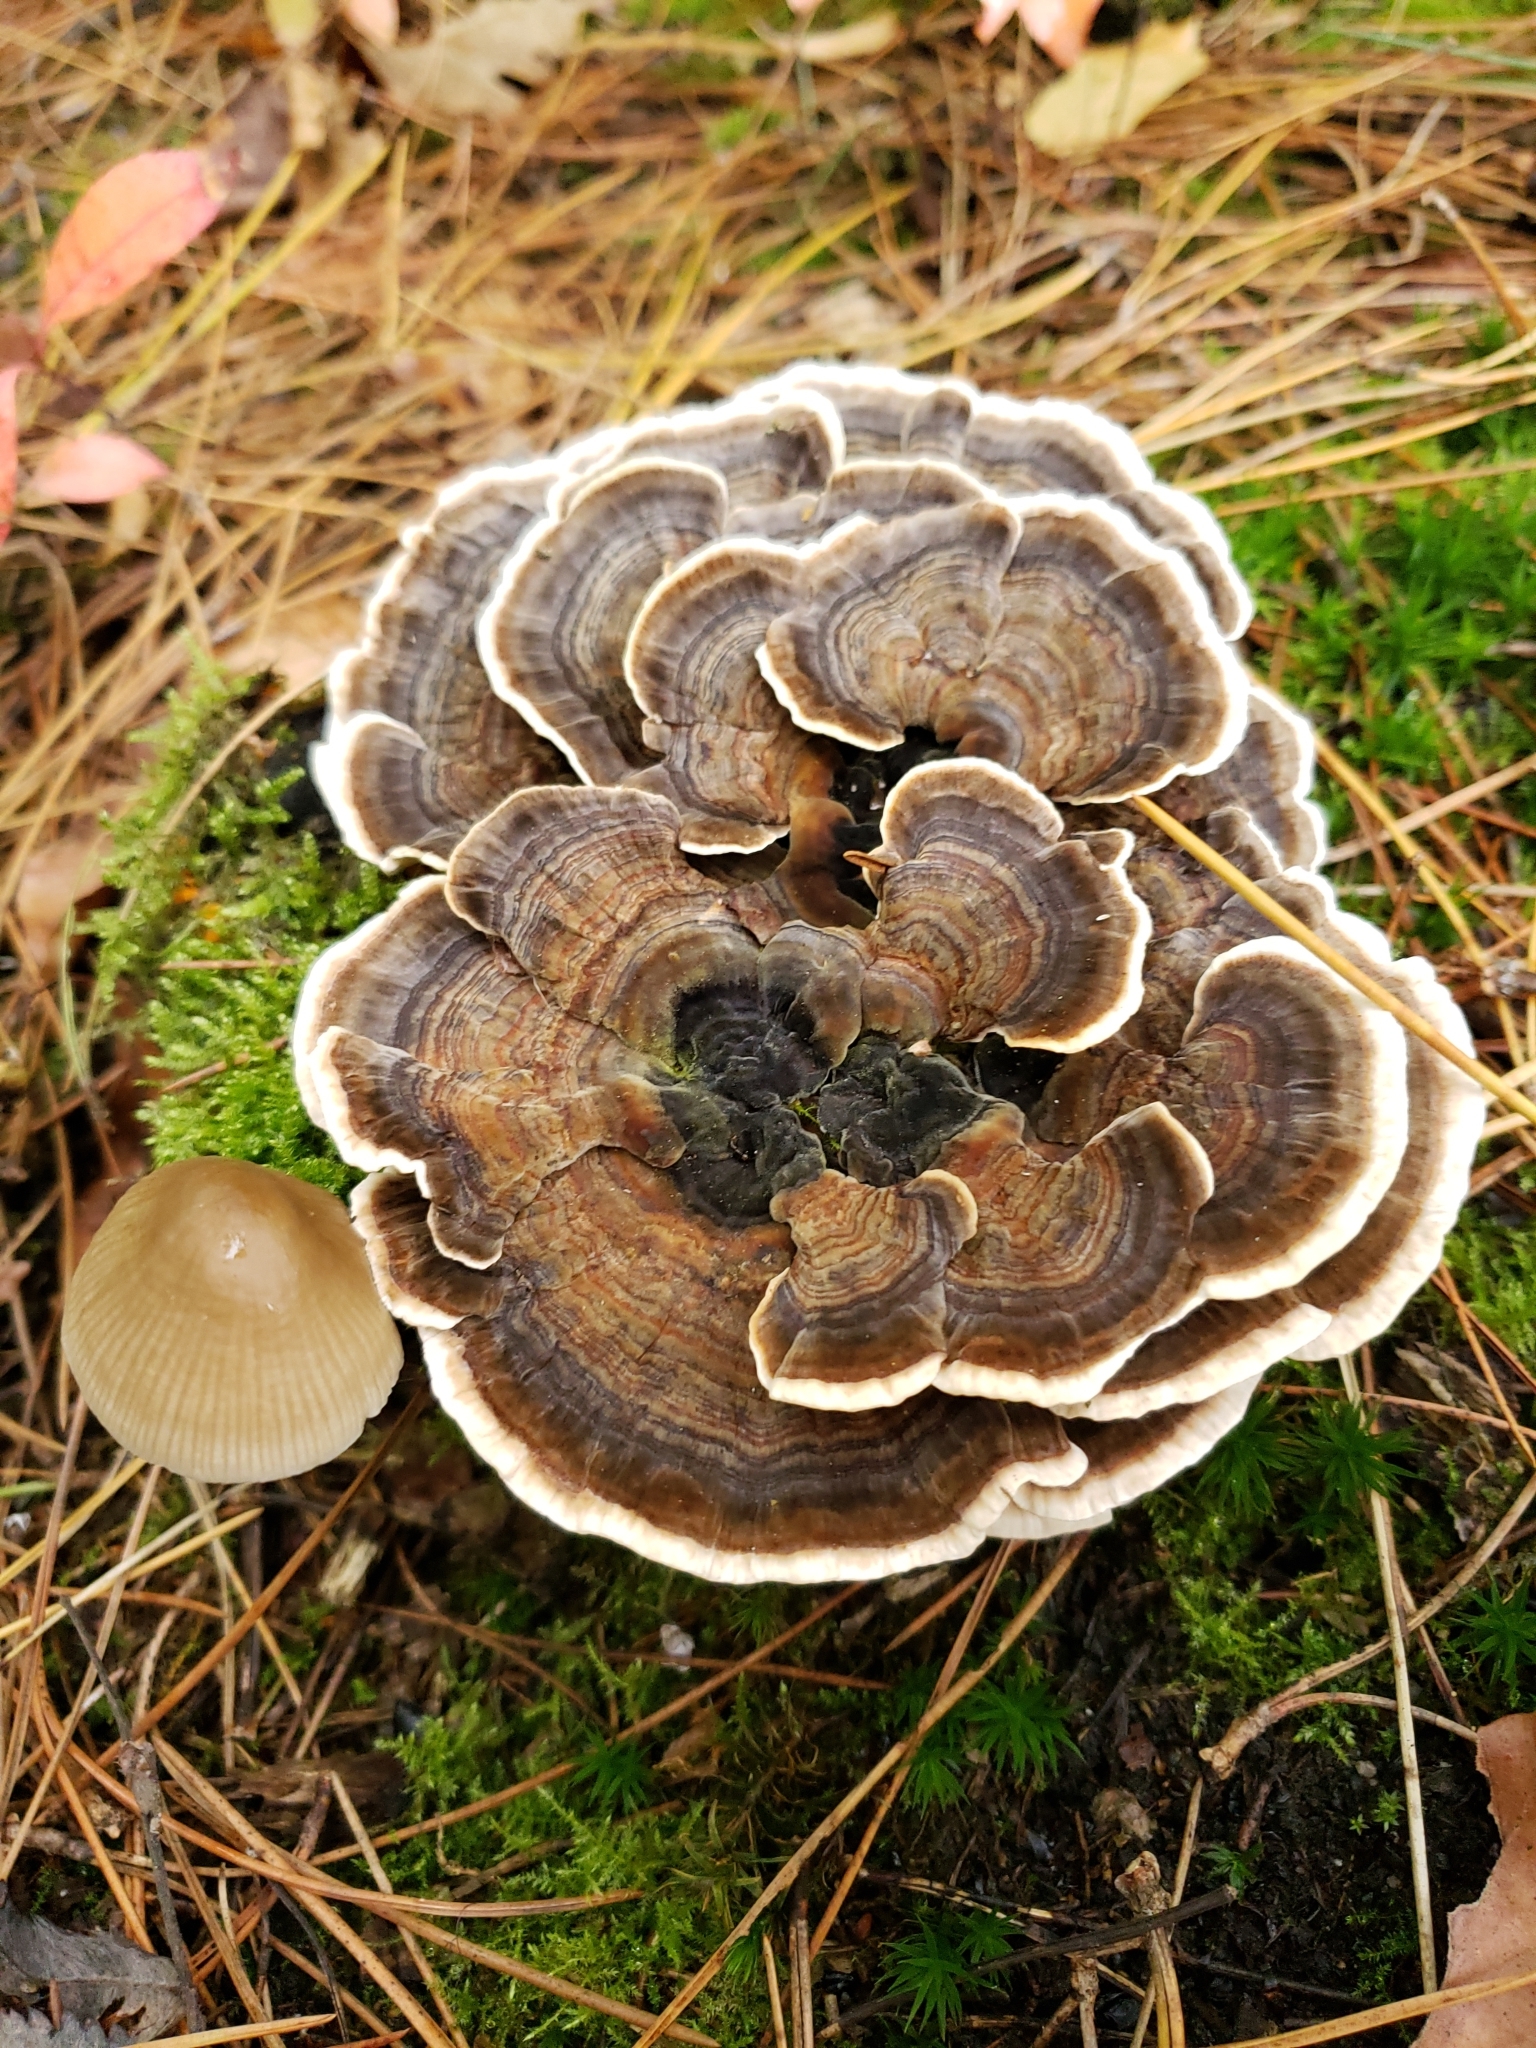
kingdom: Fungi
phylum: Basidiomycota
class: Agaricomycetes
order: Polyporales
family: Polyporaceae
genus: Trametes
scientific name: Trametes versicolor
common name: Turkeytail
